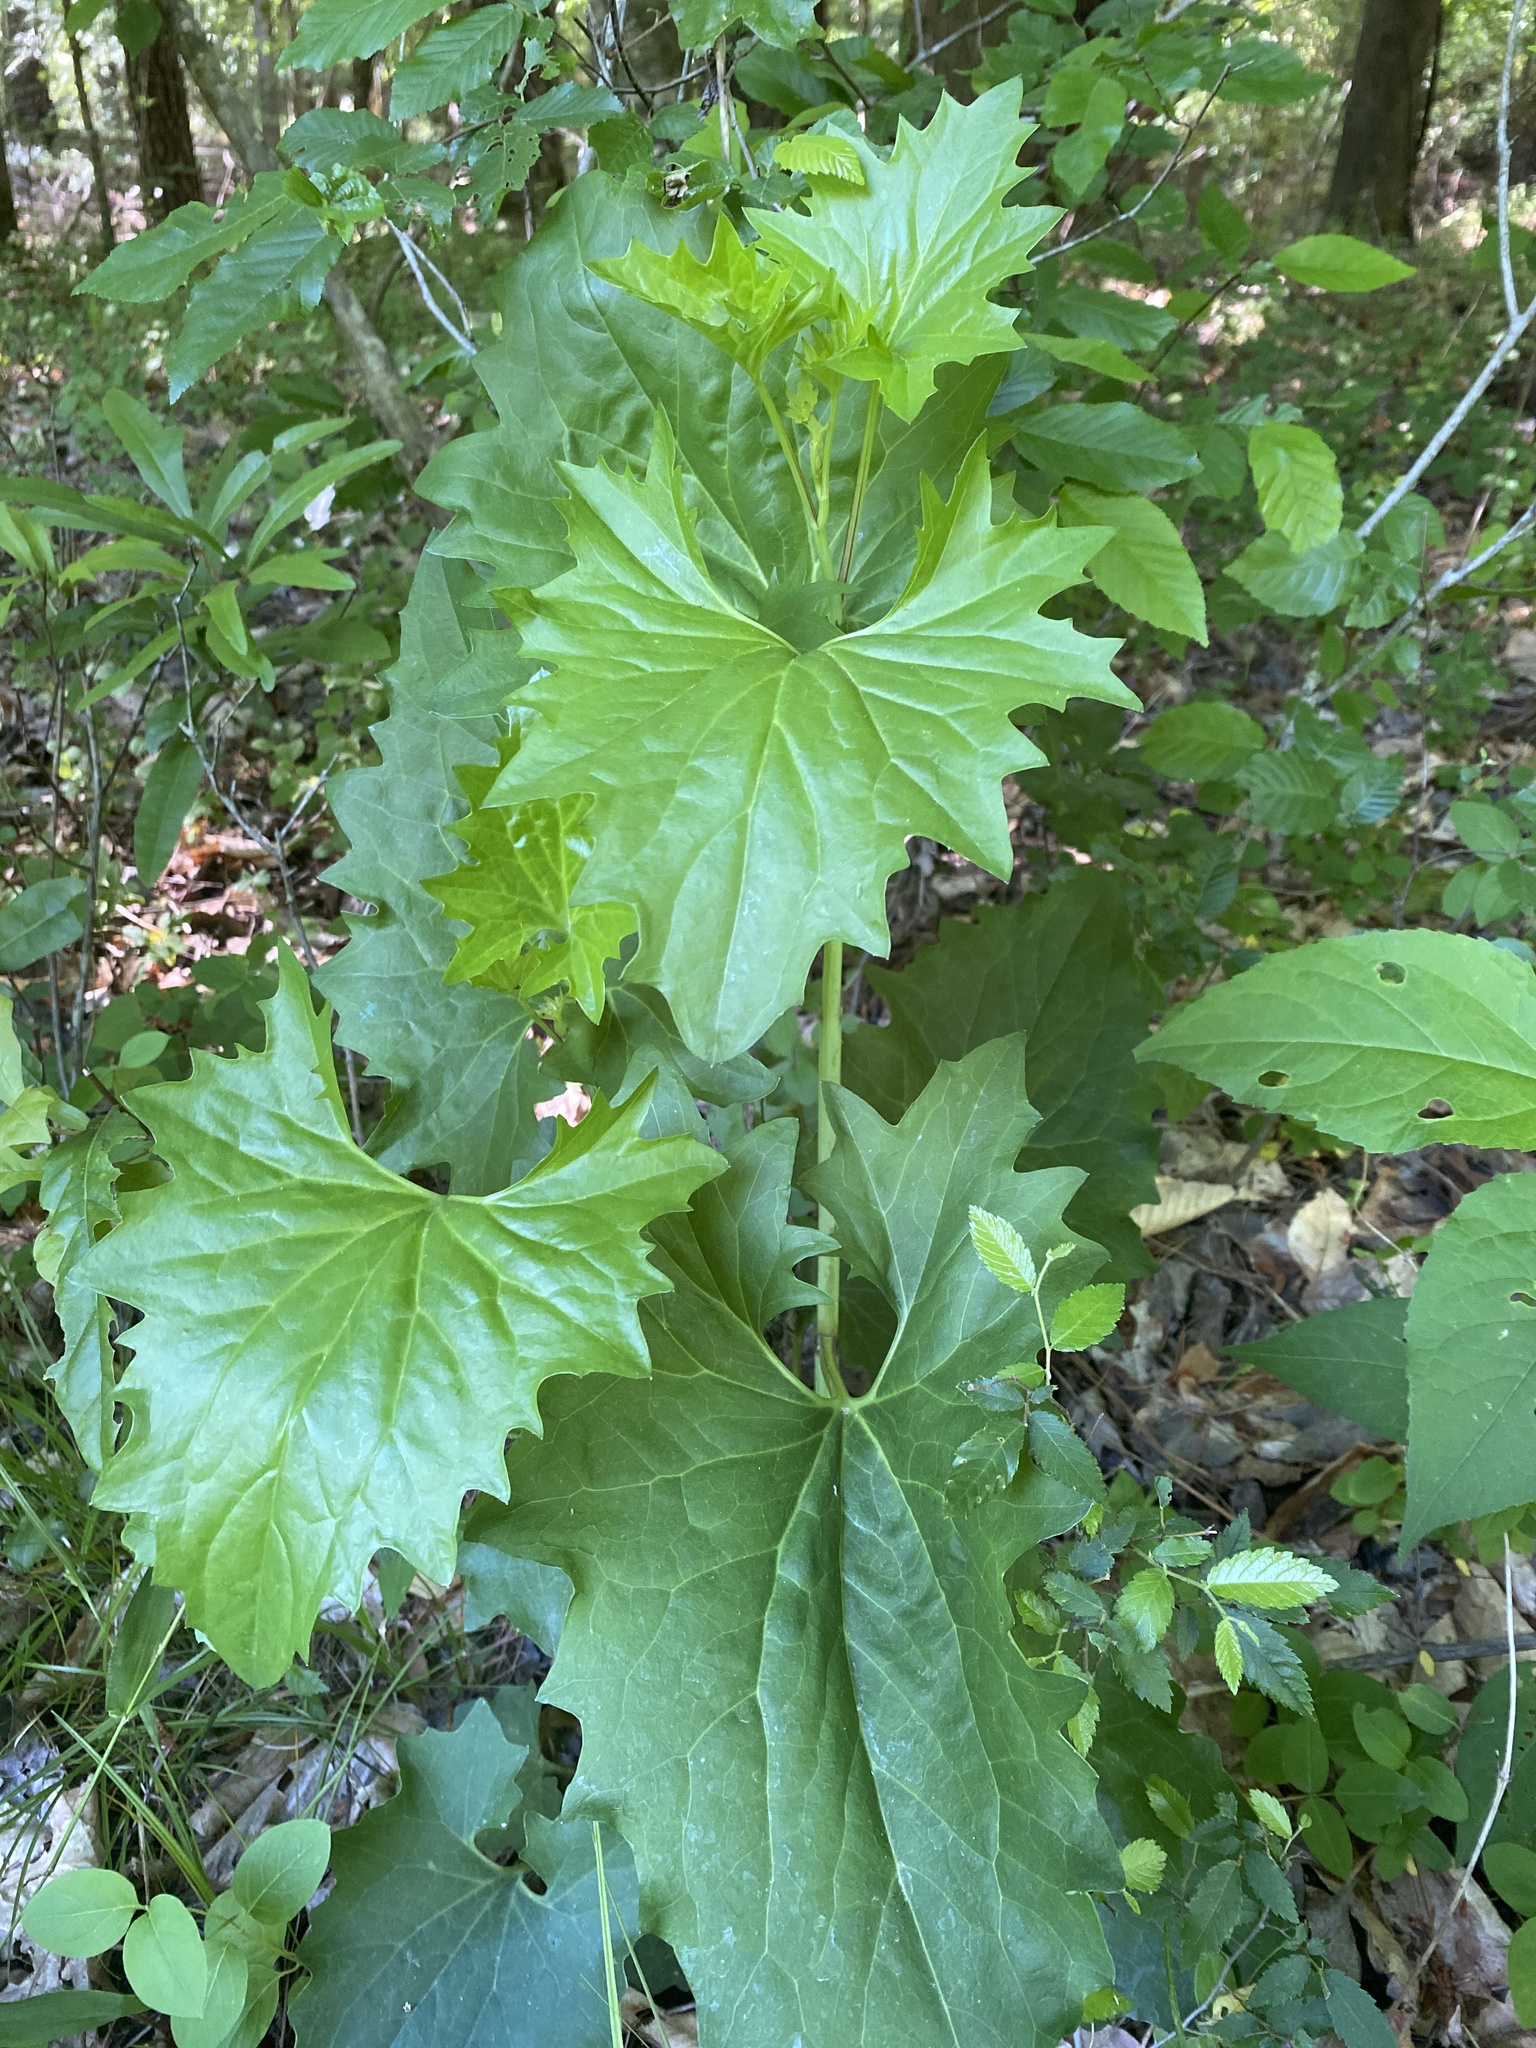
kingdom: Plantae
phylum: Tracheophyta
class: Magnoliopsida
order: Asterales
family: Asteraceae
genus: Arnoglossum
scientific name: Arnoglossum atriplicifolium
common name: Pale indian-plantain
